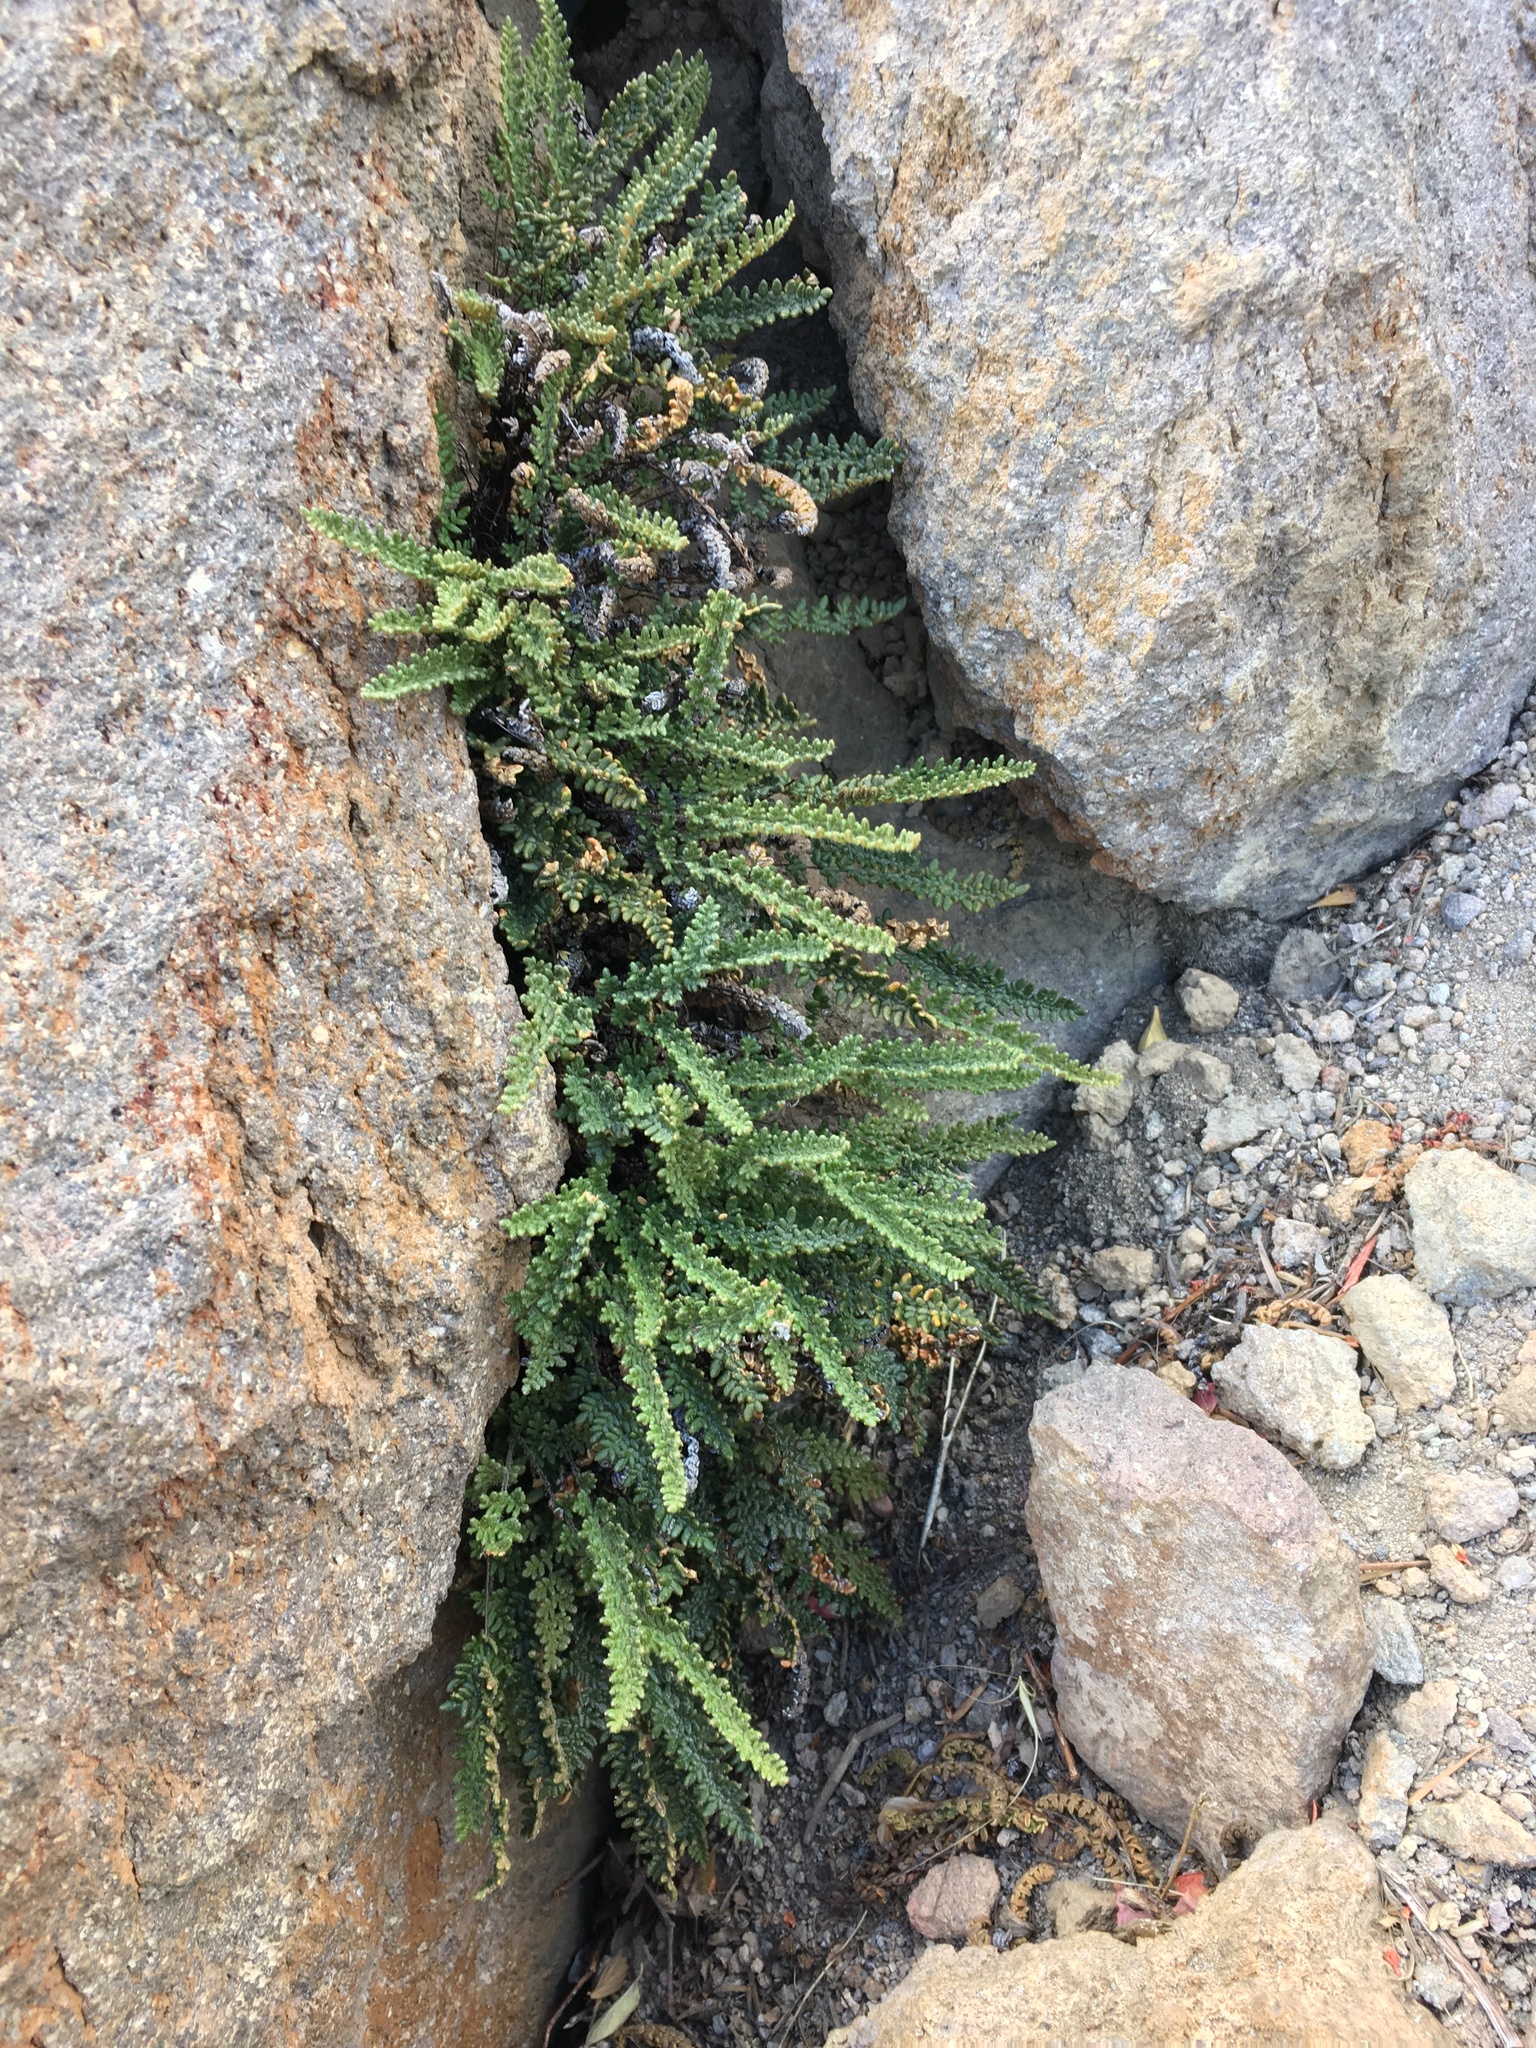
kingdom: Plantae
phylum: Tracheophyta
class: Polypodiopsida
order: Polypodiales
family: Pteridaceae
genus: Myriopteris
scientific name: Myriopteris gracillima
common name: Lace fern
